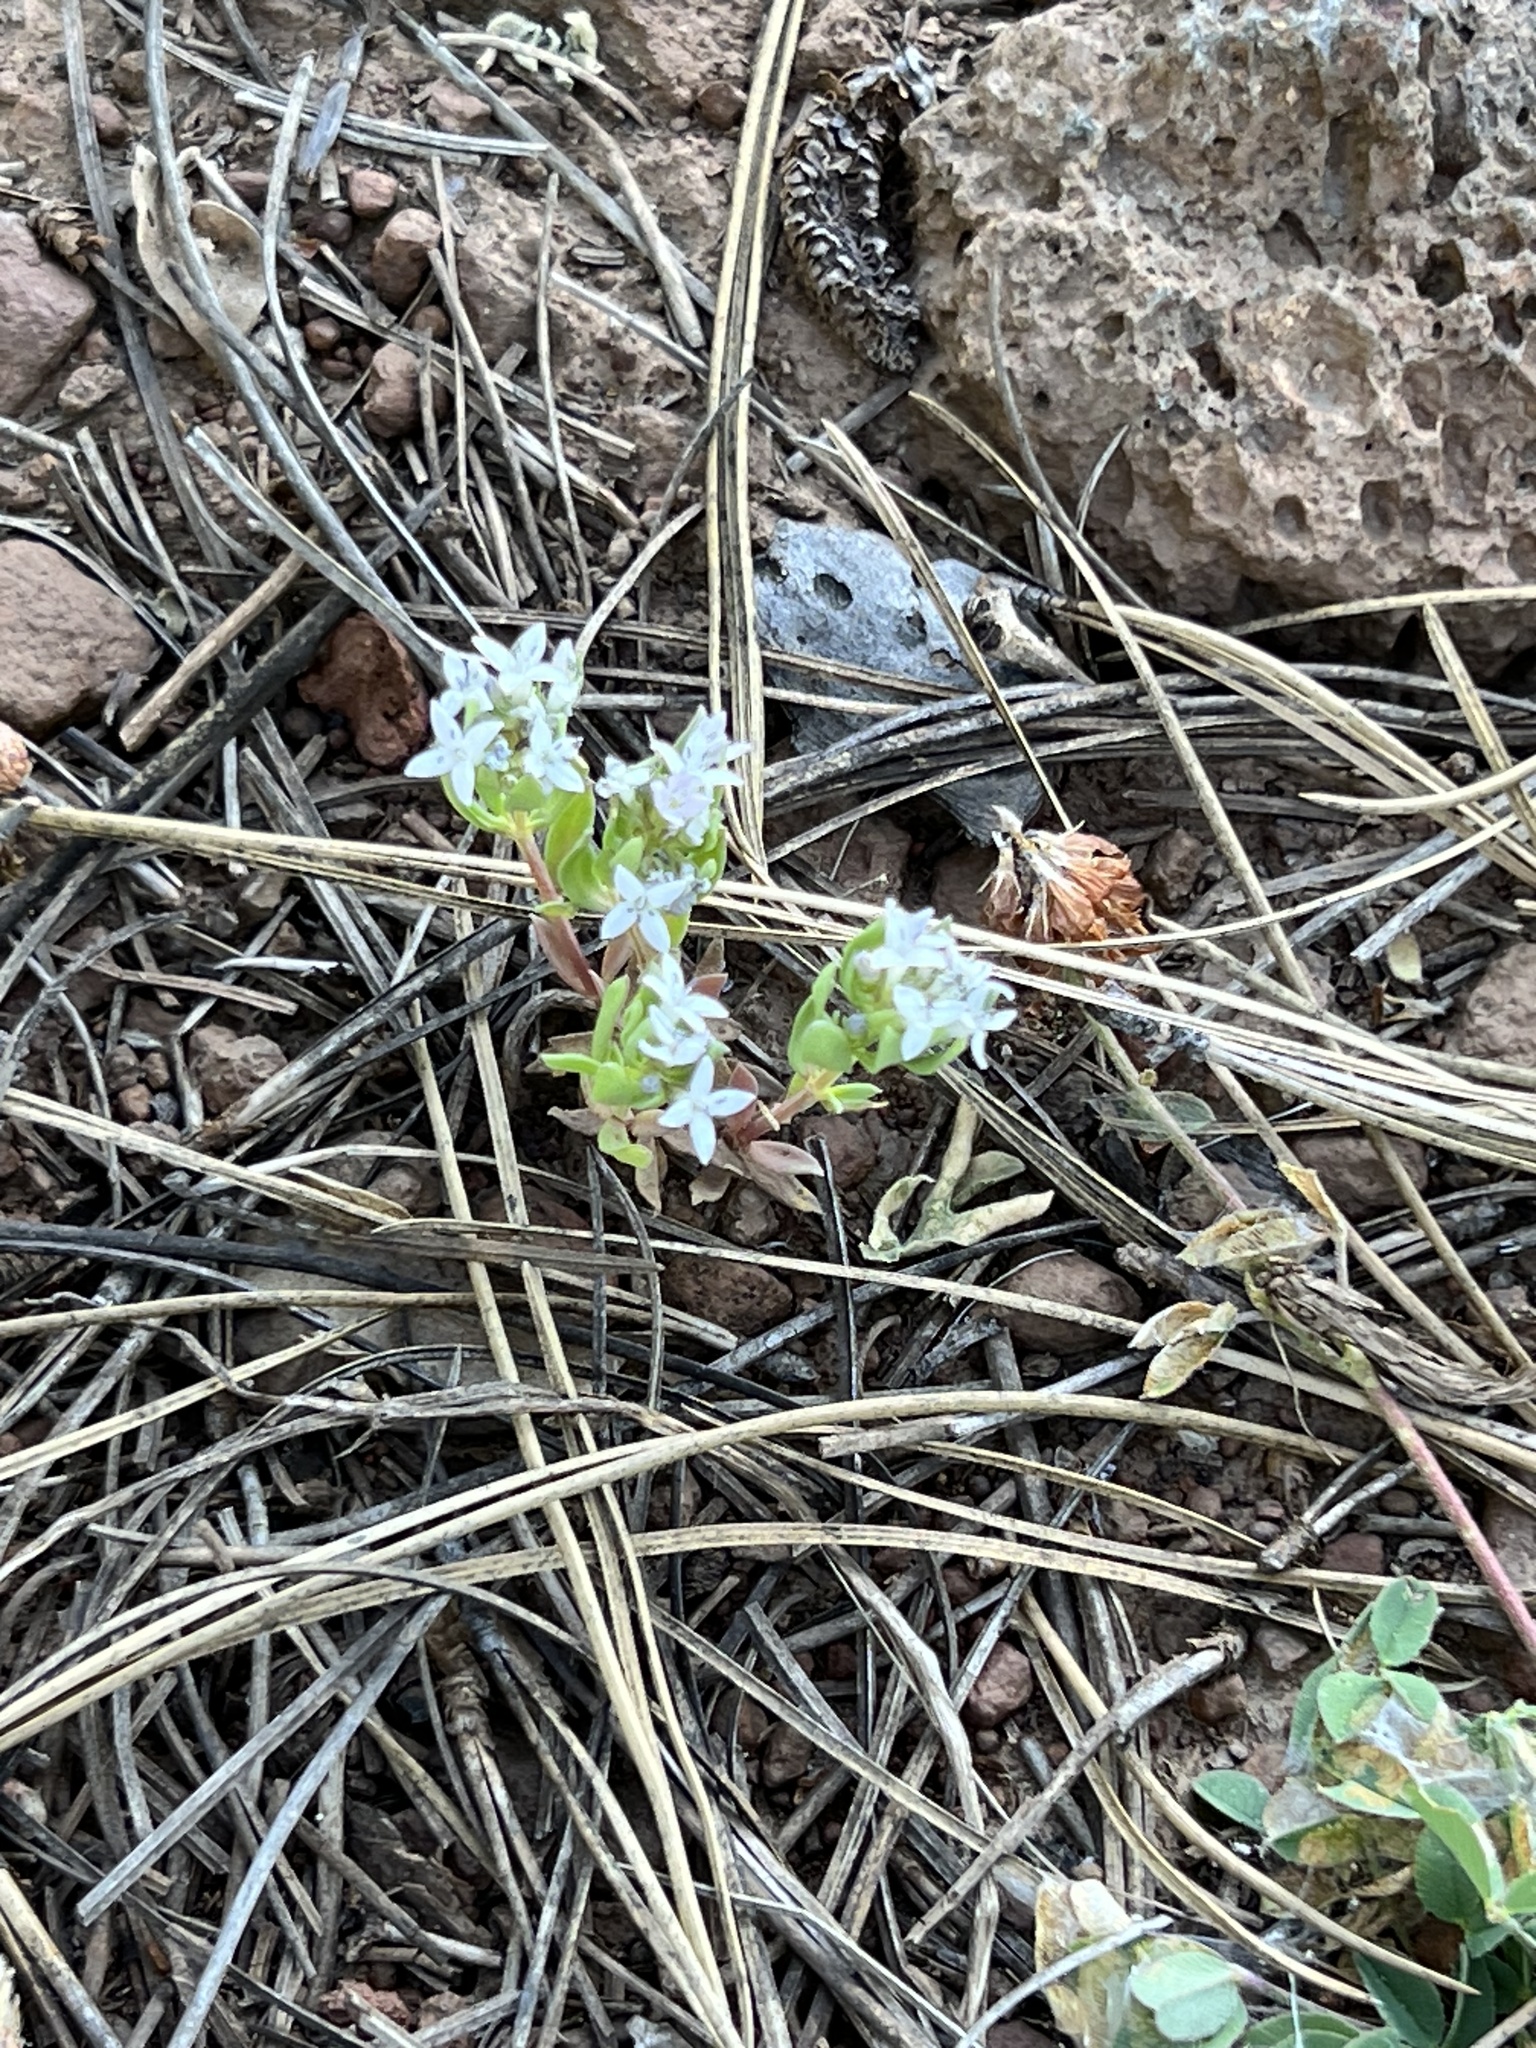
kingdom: Plantae
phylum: Tracheophyta
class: Magnoliopsida
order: Gentianales
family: Rubiaceae
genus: Houstonia
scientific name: Houstonia wrightii
